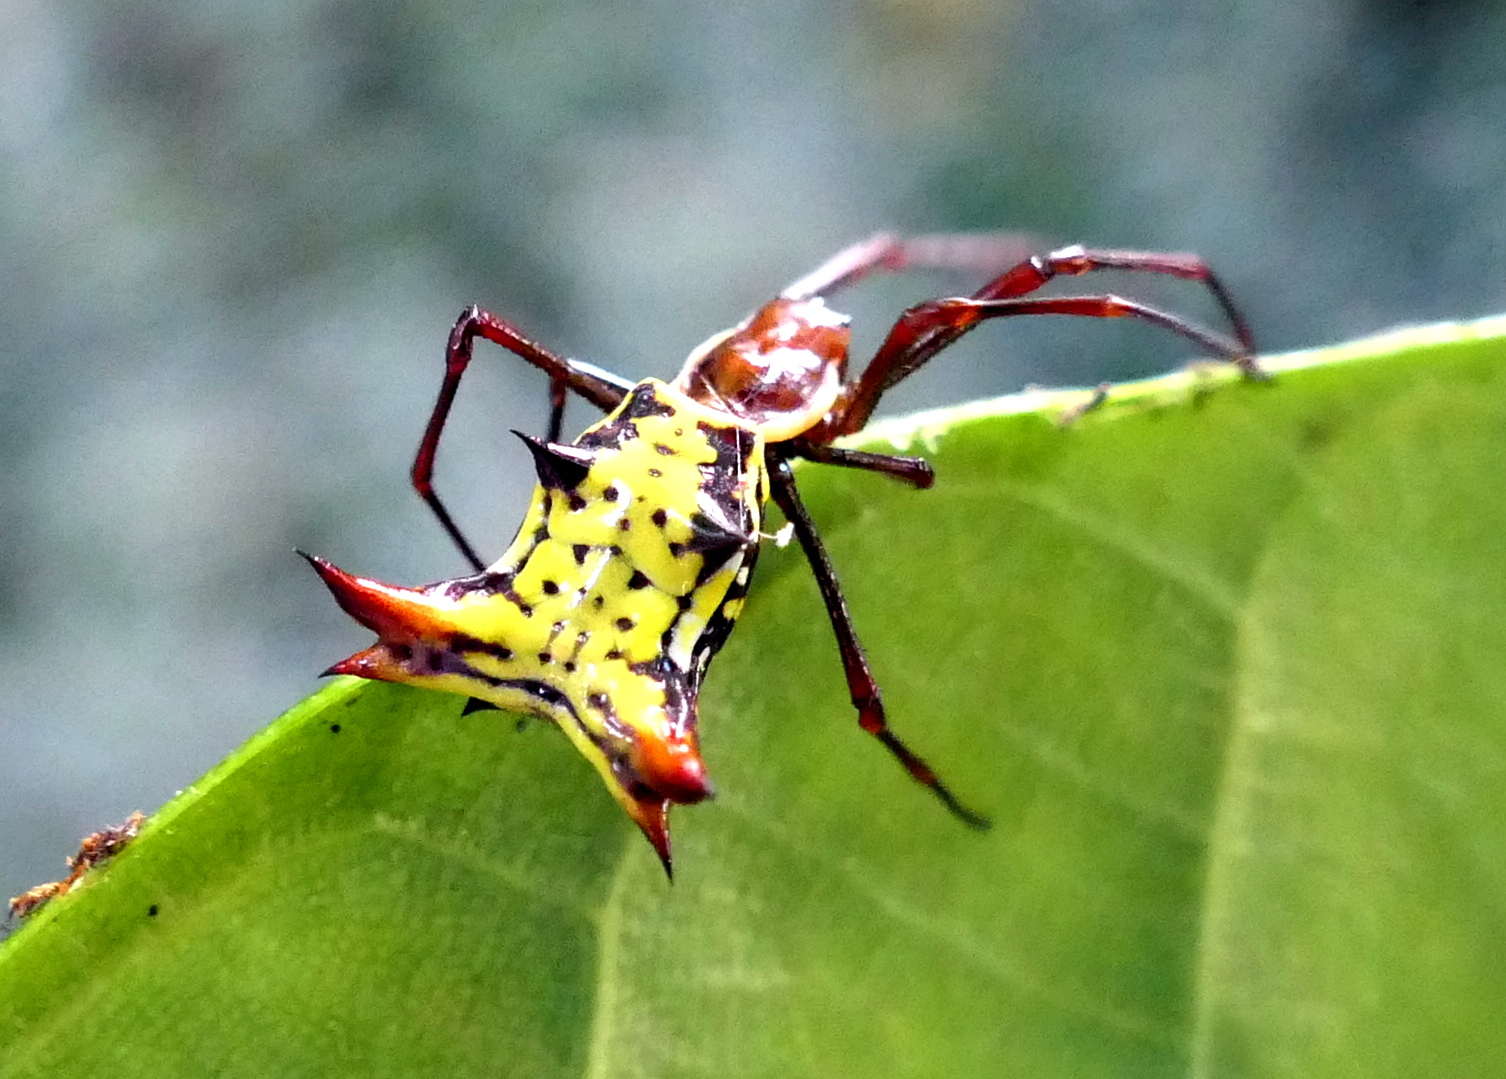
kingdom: Animalia
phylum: Arthropoda
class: Arachnida
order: Araneae
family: Araneidae
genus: Micrathena
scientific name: Micrathena fissispina
